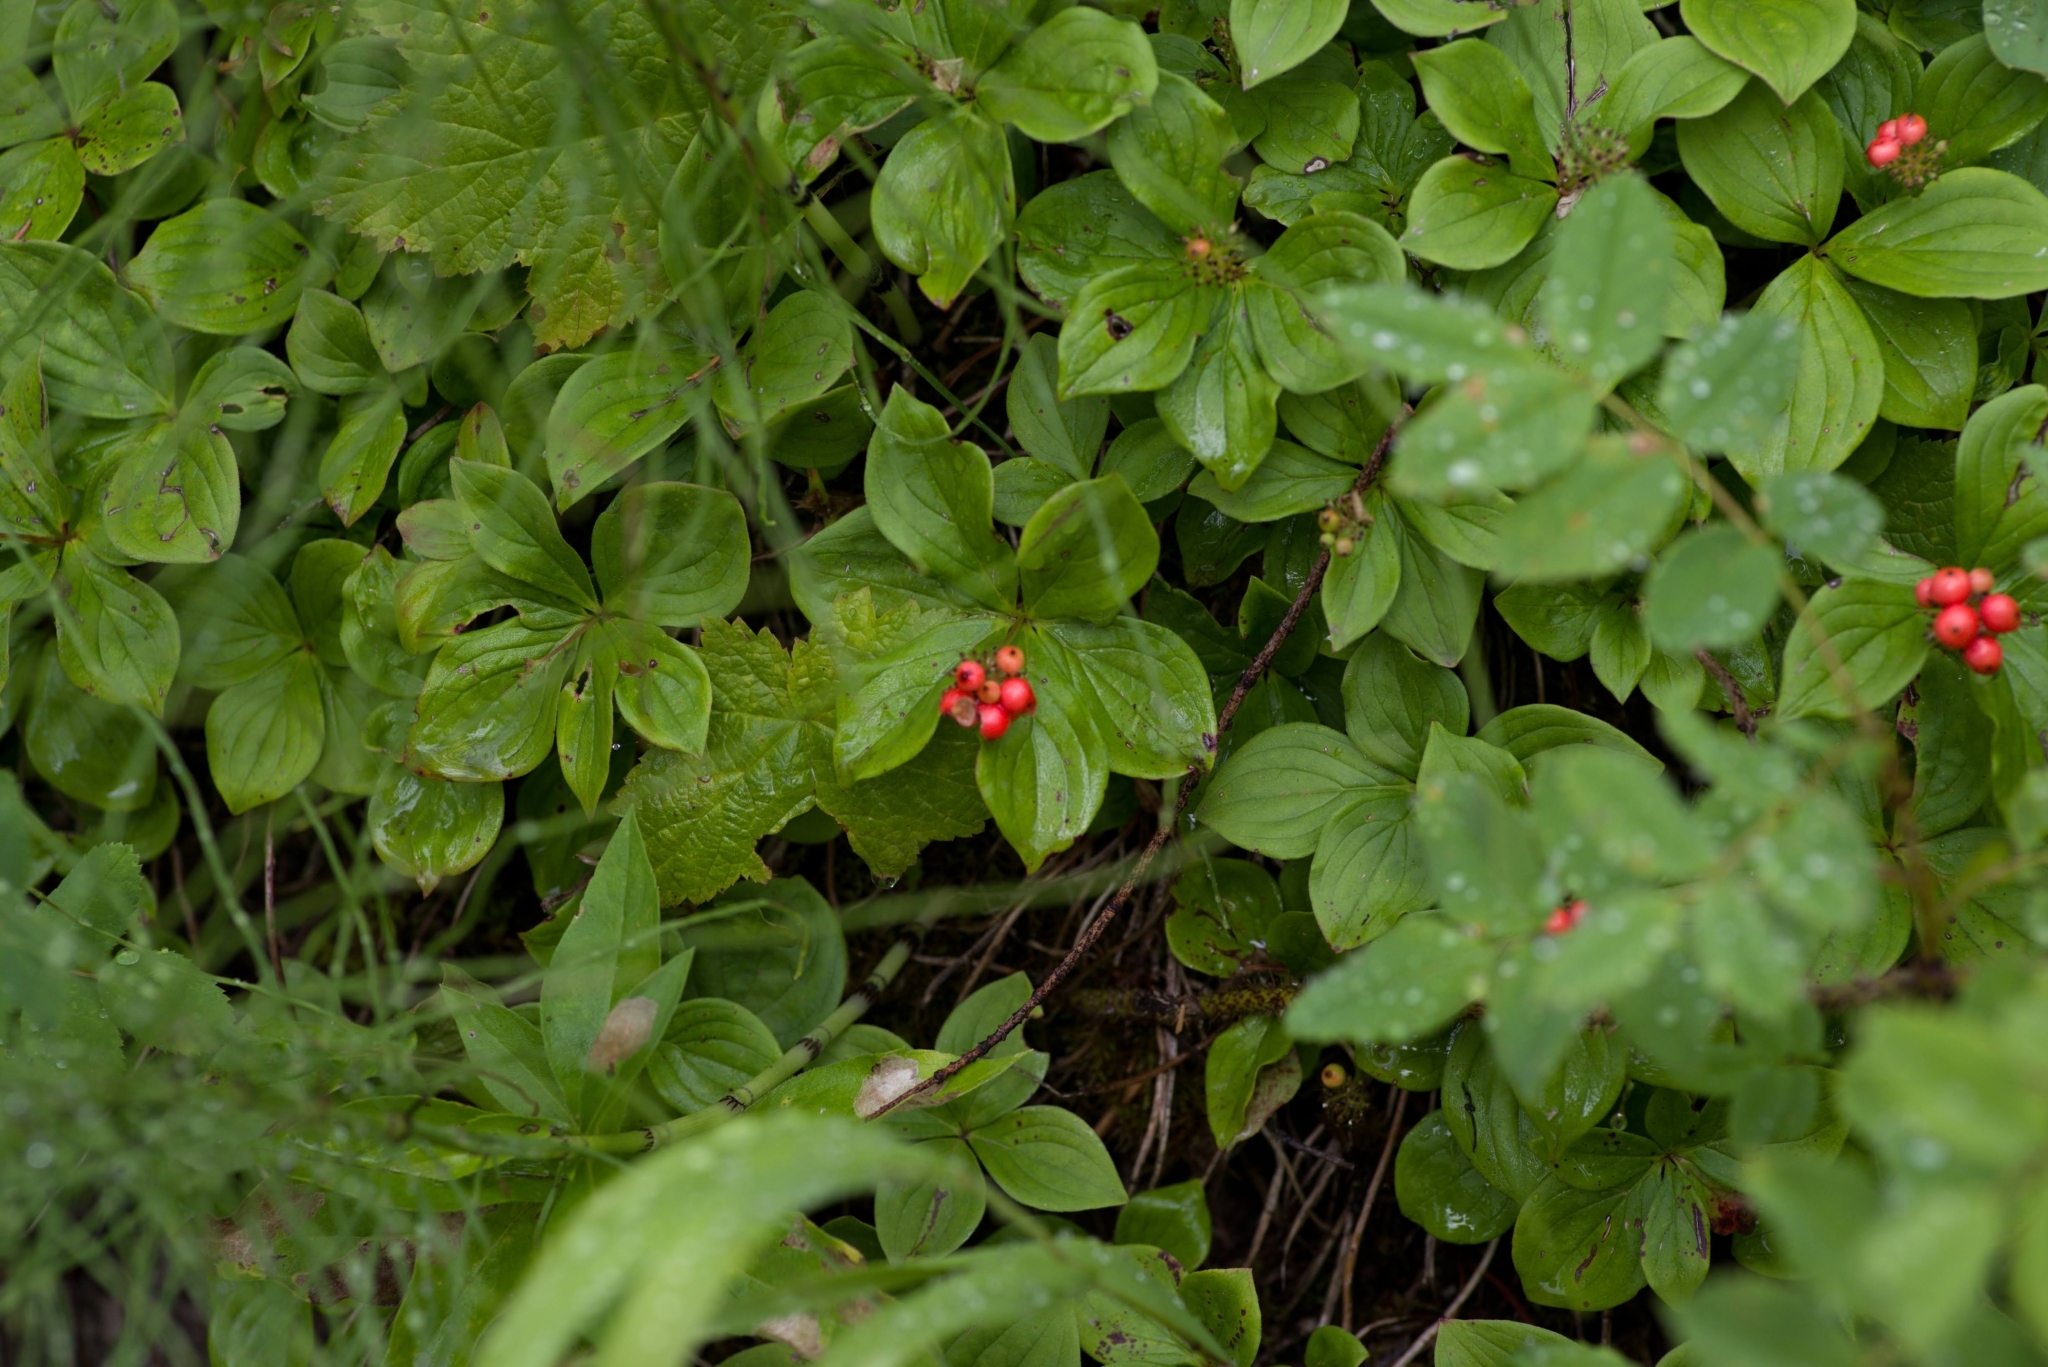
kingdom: Plantae
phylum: Tracheophyta
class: Magnoliopsida
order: Cornales
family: Cornaceae
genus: Cornus
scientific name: Cornus canadensis
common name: Creeping dogwood
